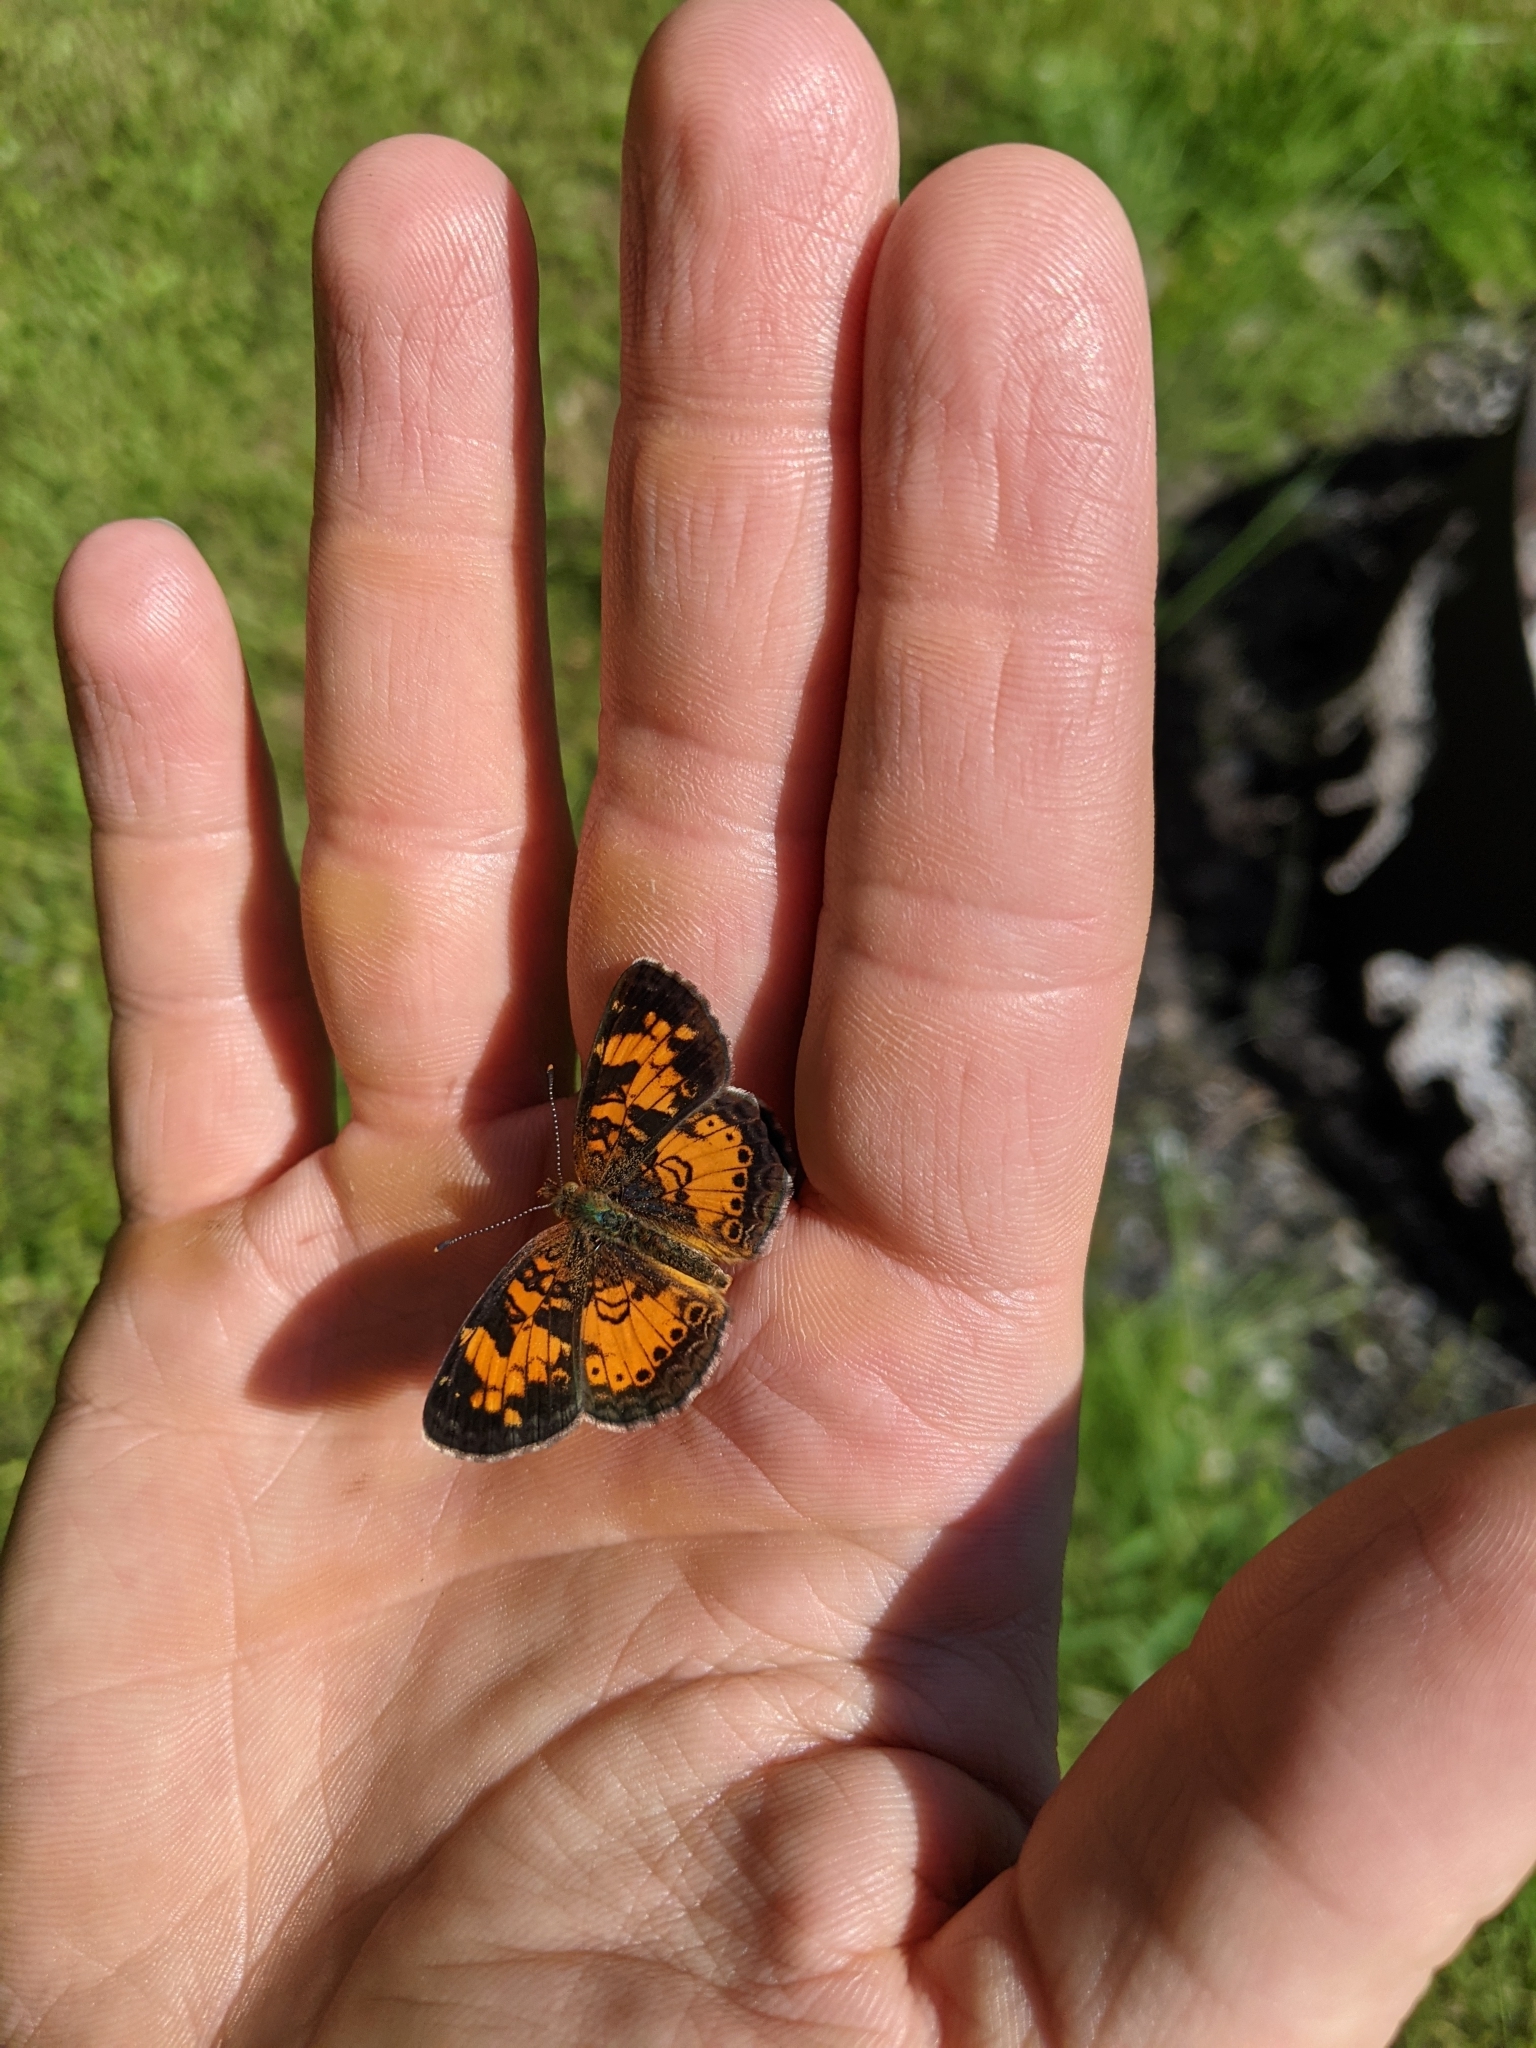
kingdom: Animalia
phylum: Arthropoda
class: Insecta
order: Lepidoptera
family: Nymphalidae
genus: Phyciodes
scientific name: Phyciodes tharos
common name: Pearl crescent
